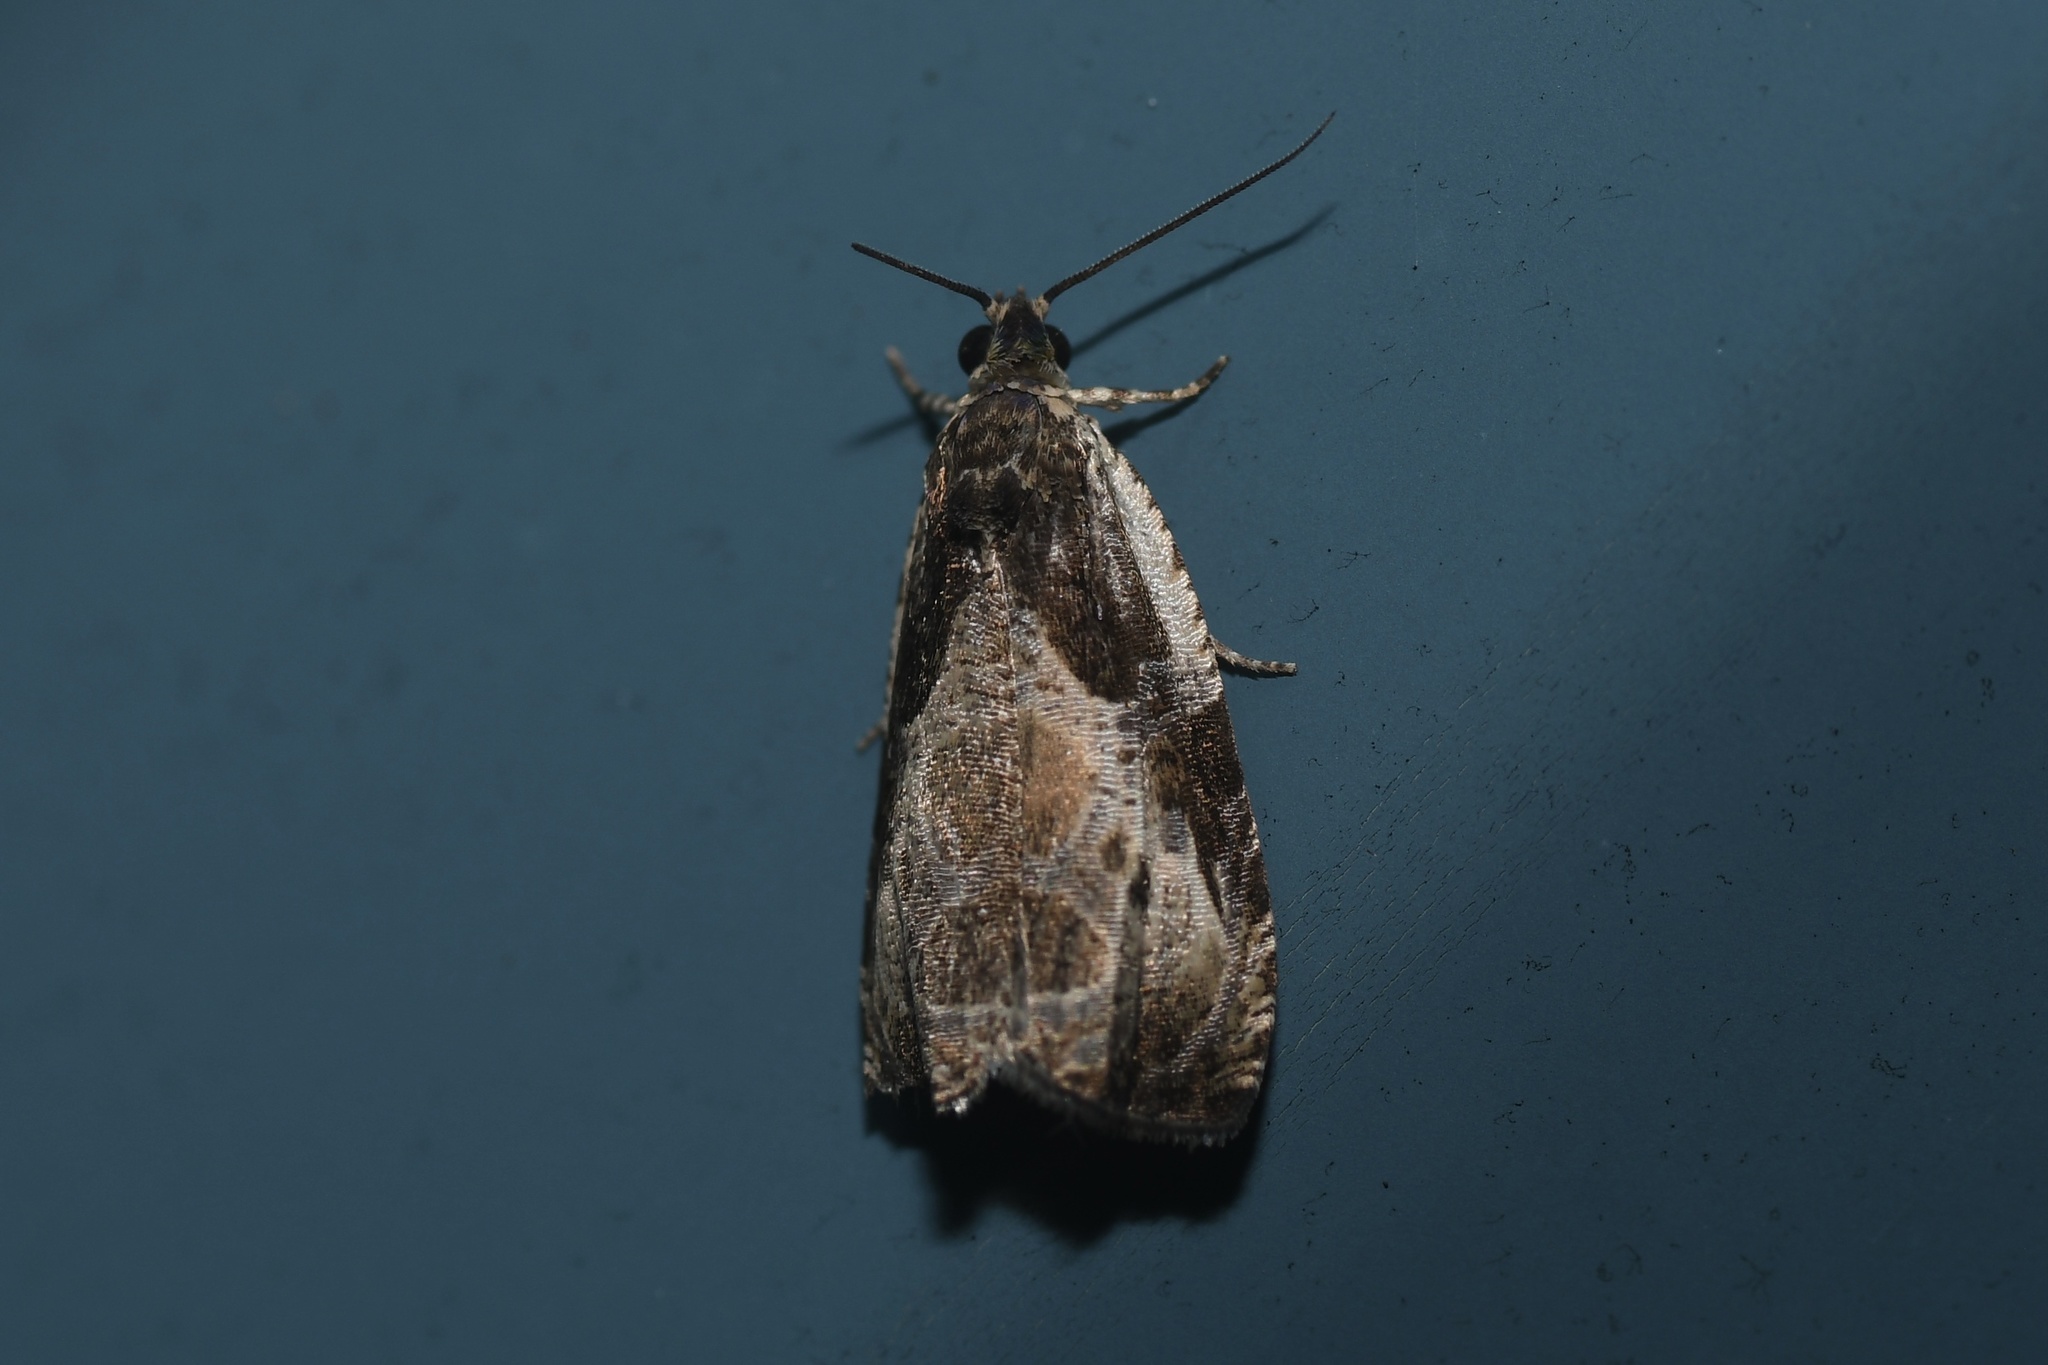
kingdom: Animalia
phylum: Arthropoda
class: Insecta
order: Lepidoptera
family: Tortricidae
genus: Olethreutes
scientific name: Olethreutes connectum
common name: Bunchberry leaffolder moth
